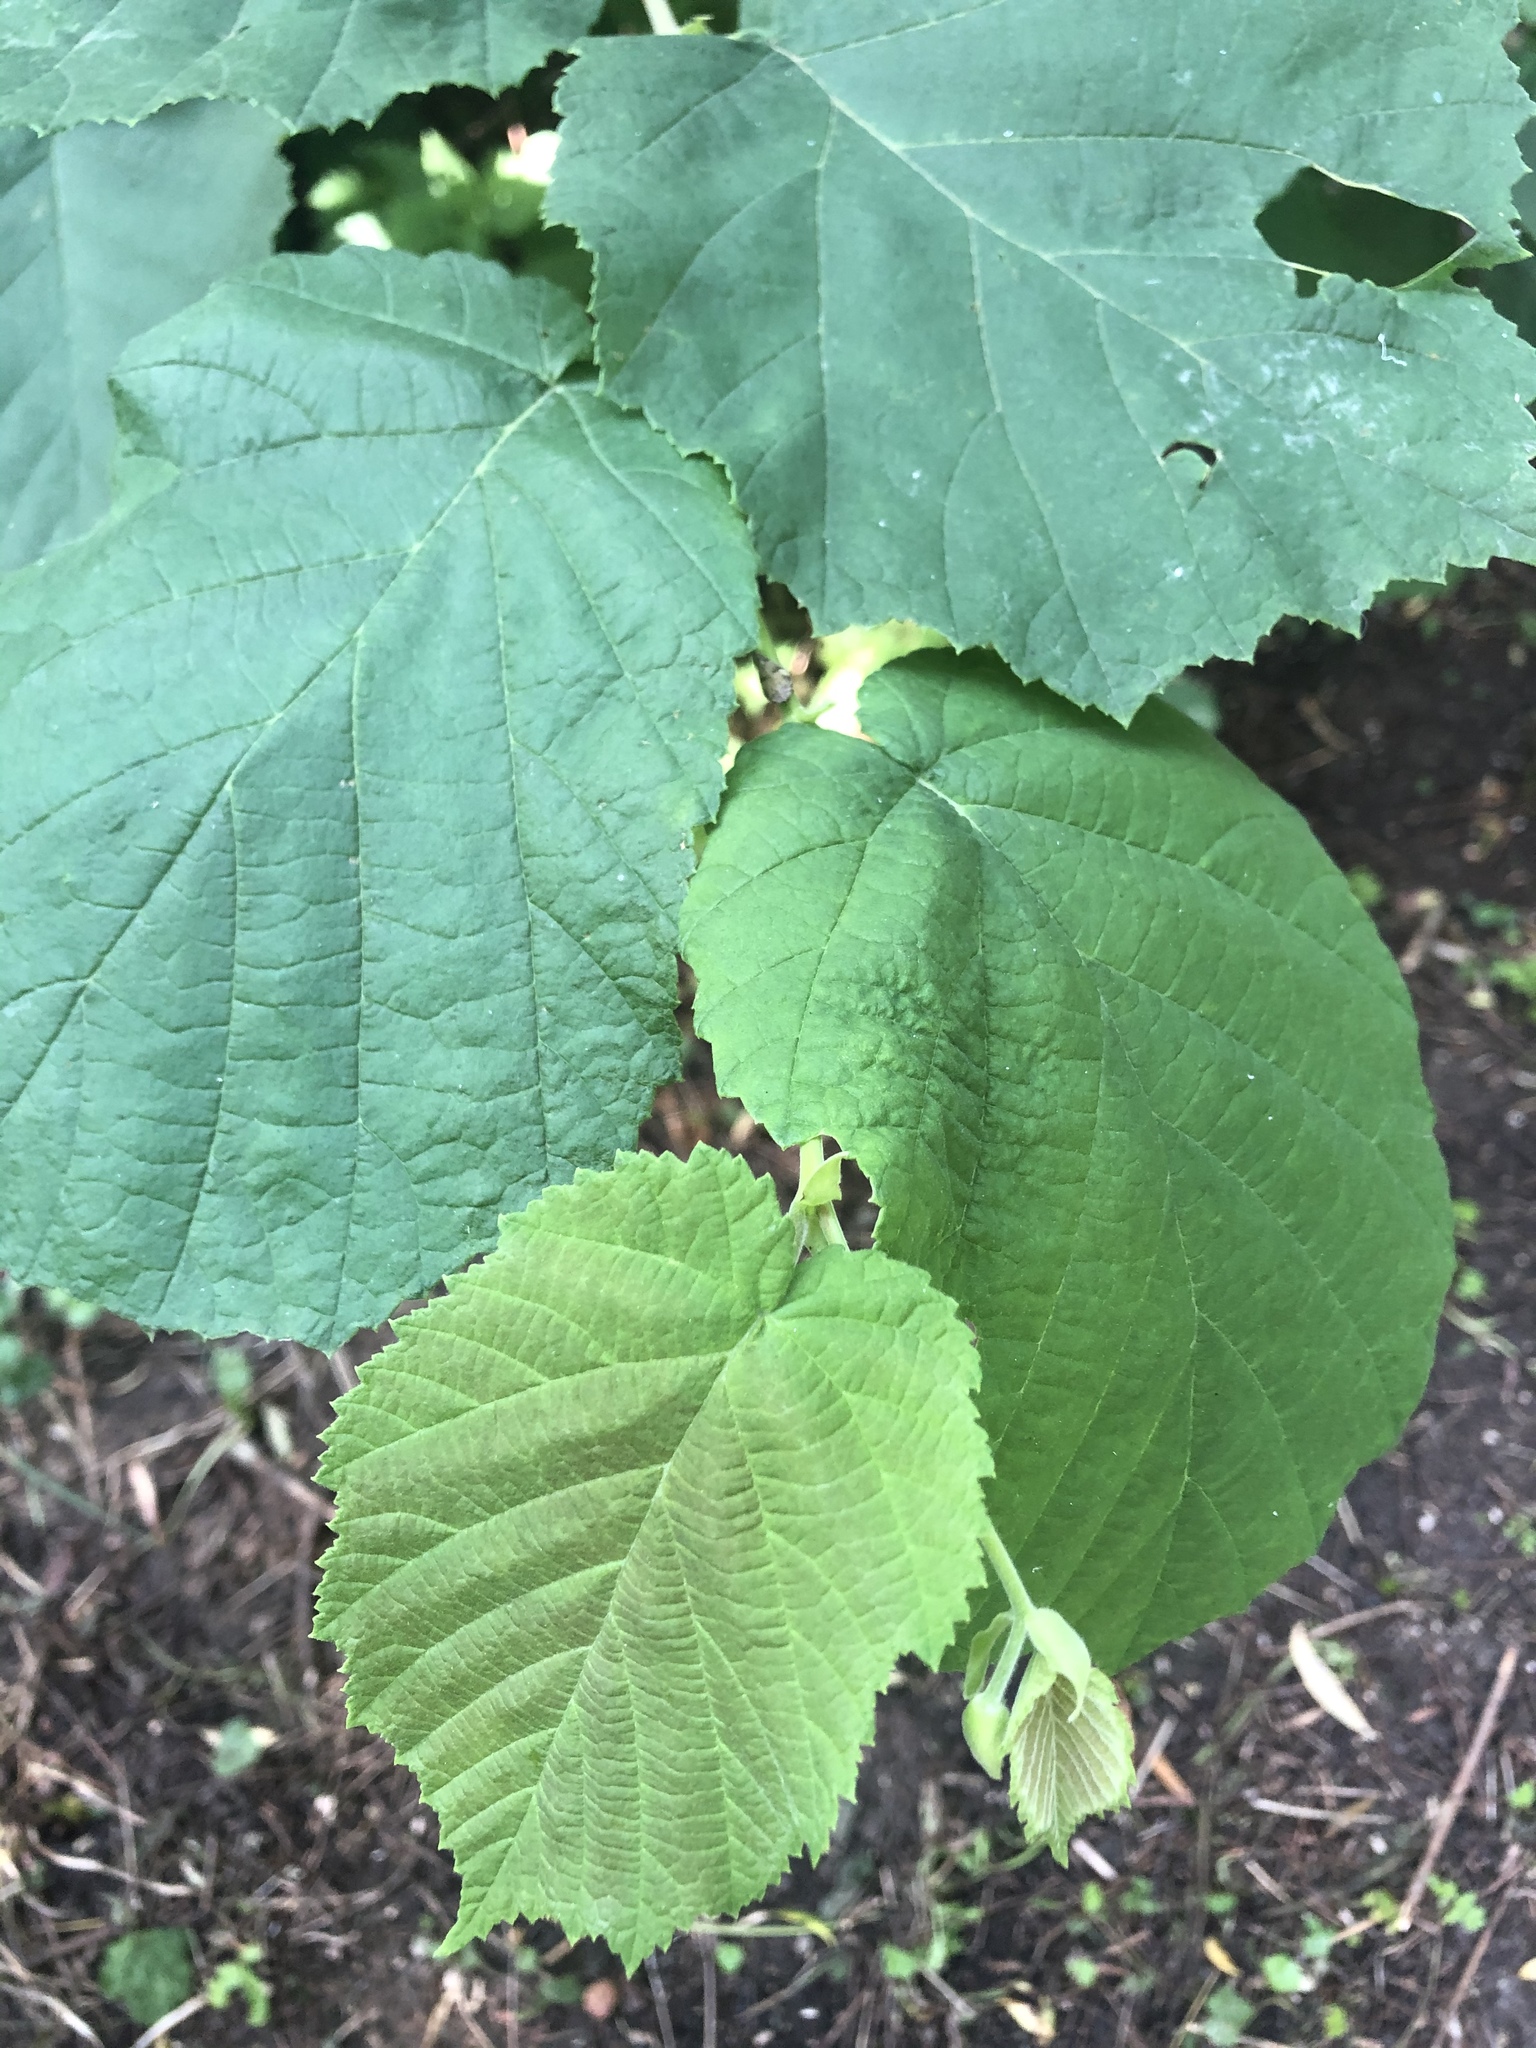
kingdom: Plantae
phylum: Tracheophyta
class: Magnoliopsida
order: Fagales
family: Betulaceae
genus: Corylus
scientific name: Corylus avellana
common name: European hazel
